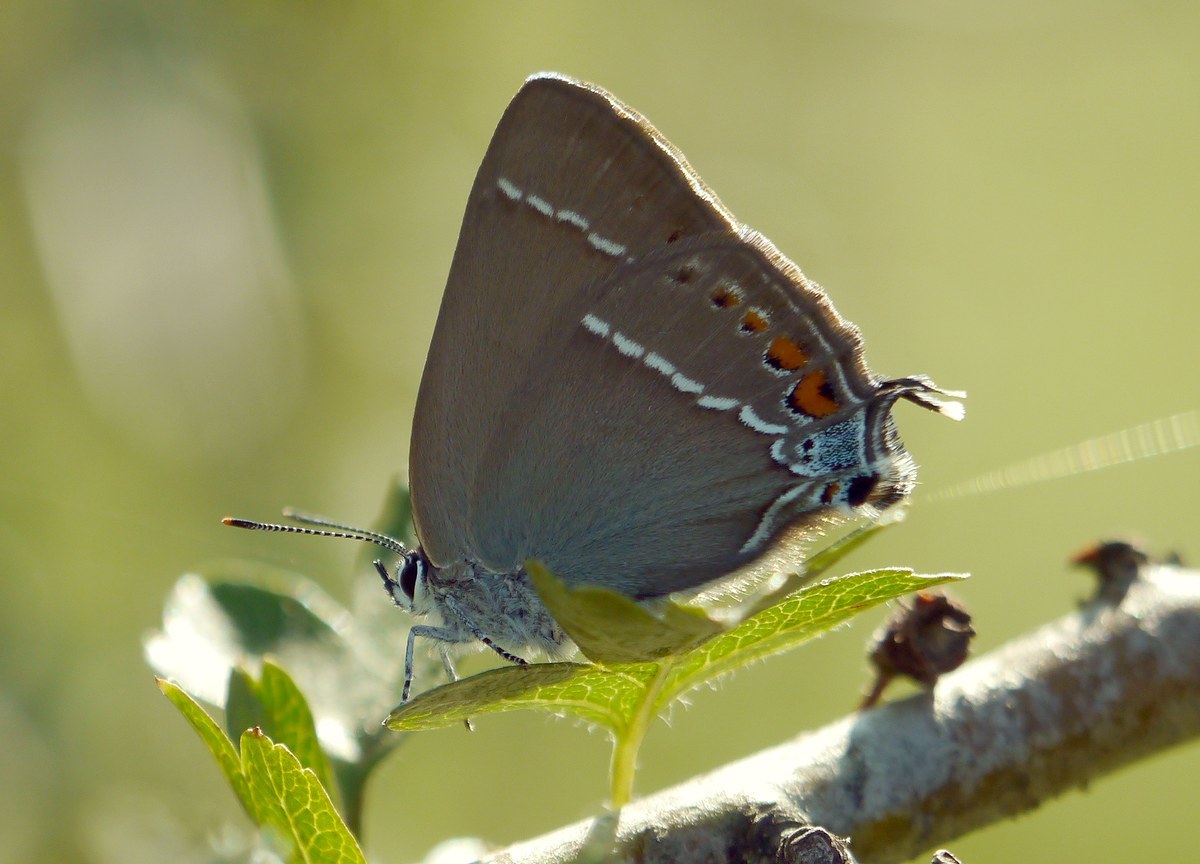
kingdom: Animalia
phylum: Arthropoda
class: Insecta
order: Lepidoptera
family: Lycaenidae
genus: Tuttiola
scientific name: Tuttiola spini
